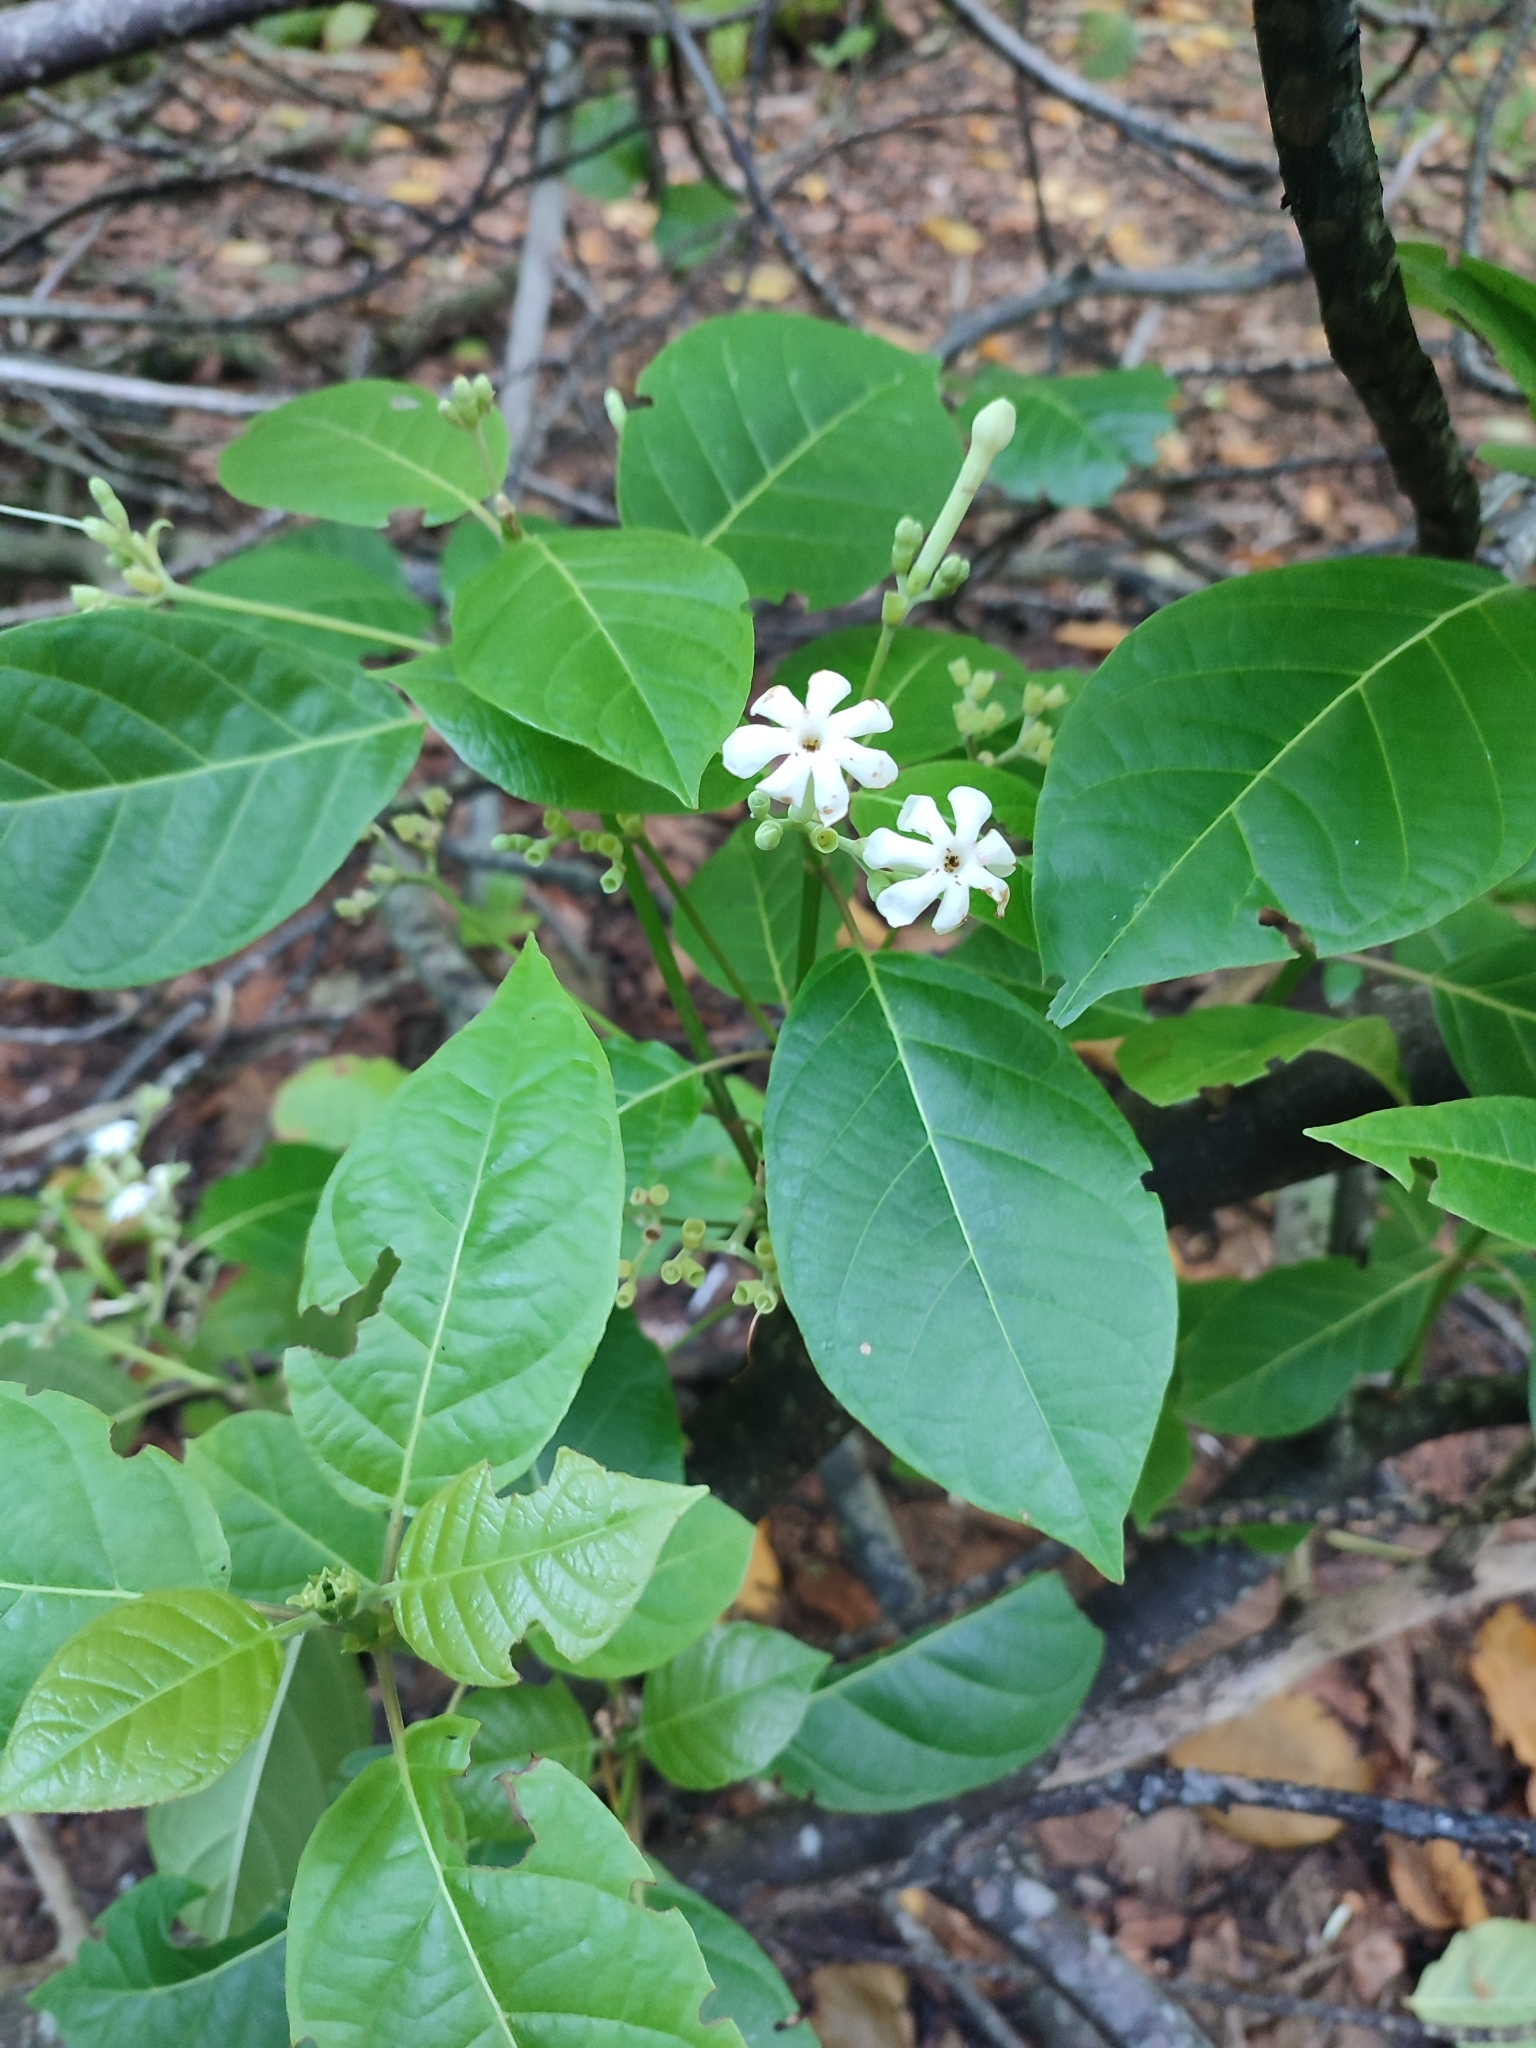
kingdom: Plantae
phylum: Tracheophyta
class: Magnoliopsida
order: Gentianales
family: Rubiaceae
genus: Guettarda
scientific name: Guettarda speciosa
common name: Sea randa
